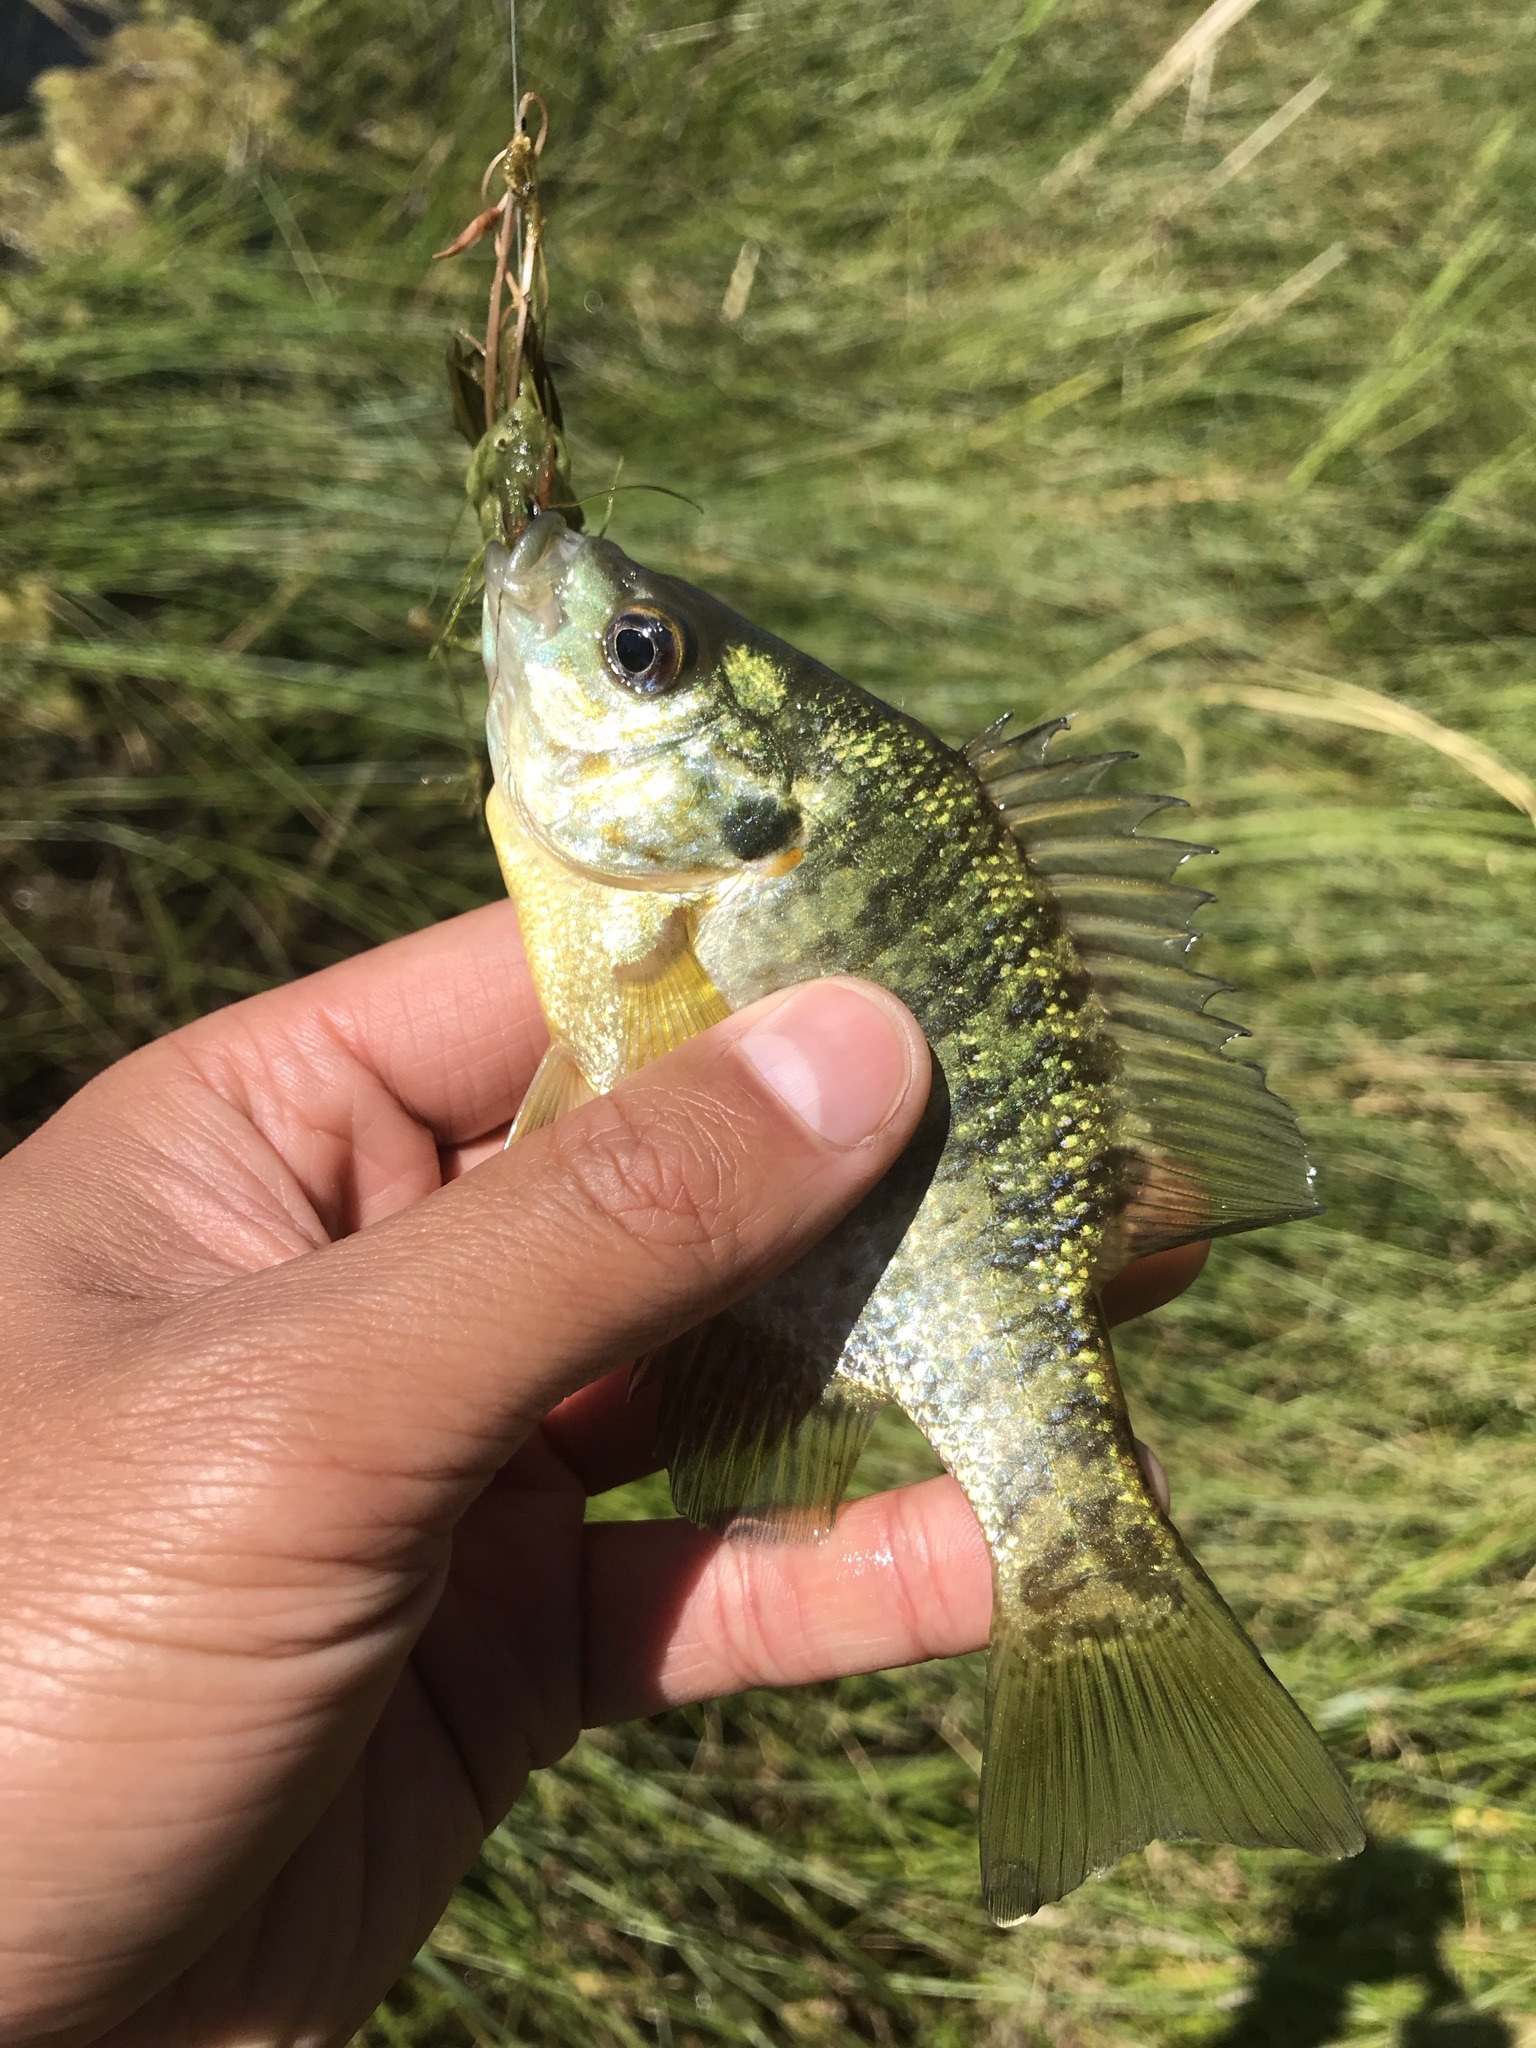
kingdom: Animalia
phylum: Chordata
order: Perciformes
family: Centrarchidae
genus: Lepomis
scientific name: Lepomis microlophus
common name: Redear sunfish
